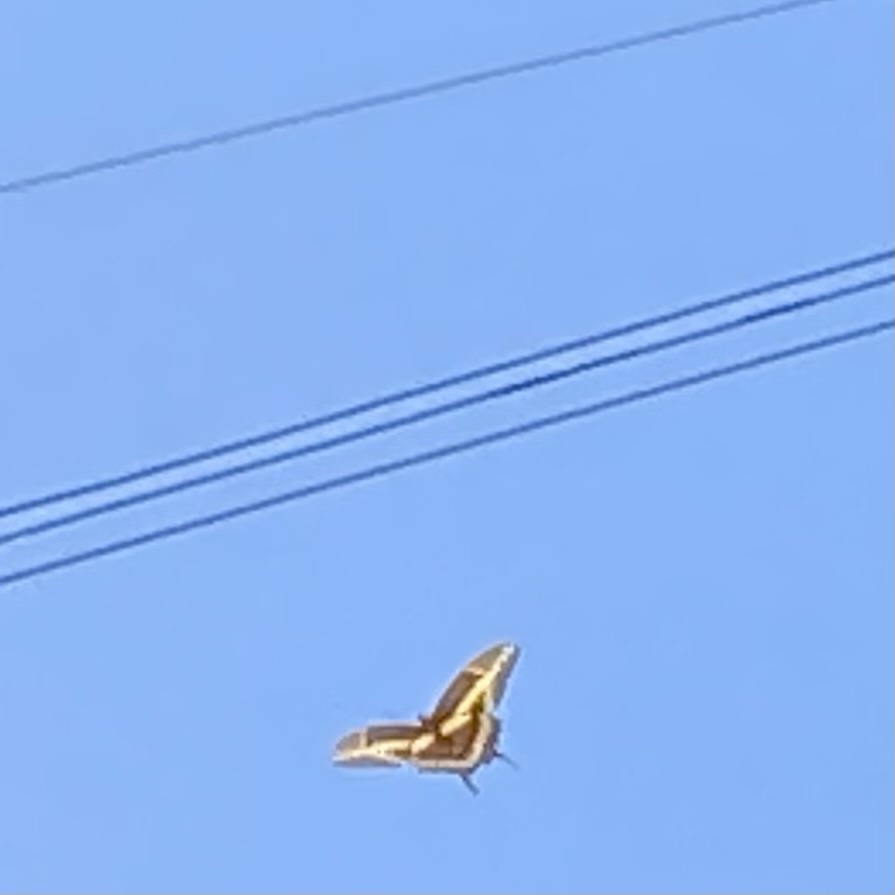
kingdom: Animalia
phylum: Arthropoda
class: Insecta
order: Lepidoptera
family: Papilionidae
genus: Papilio
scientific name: Papilio rumiko
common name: Western giant swallowtail
